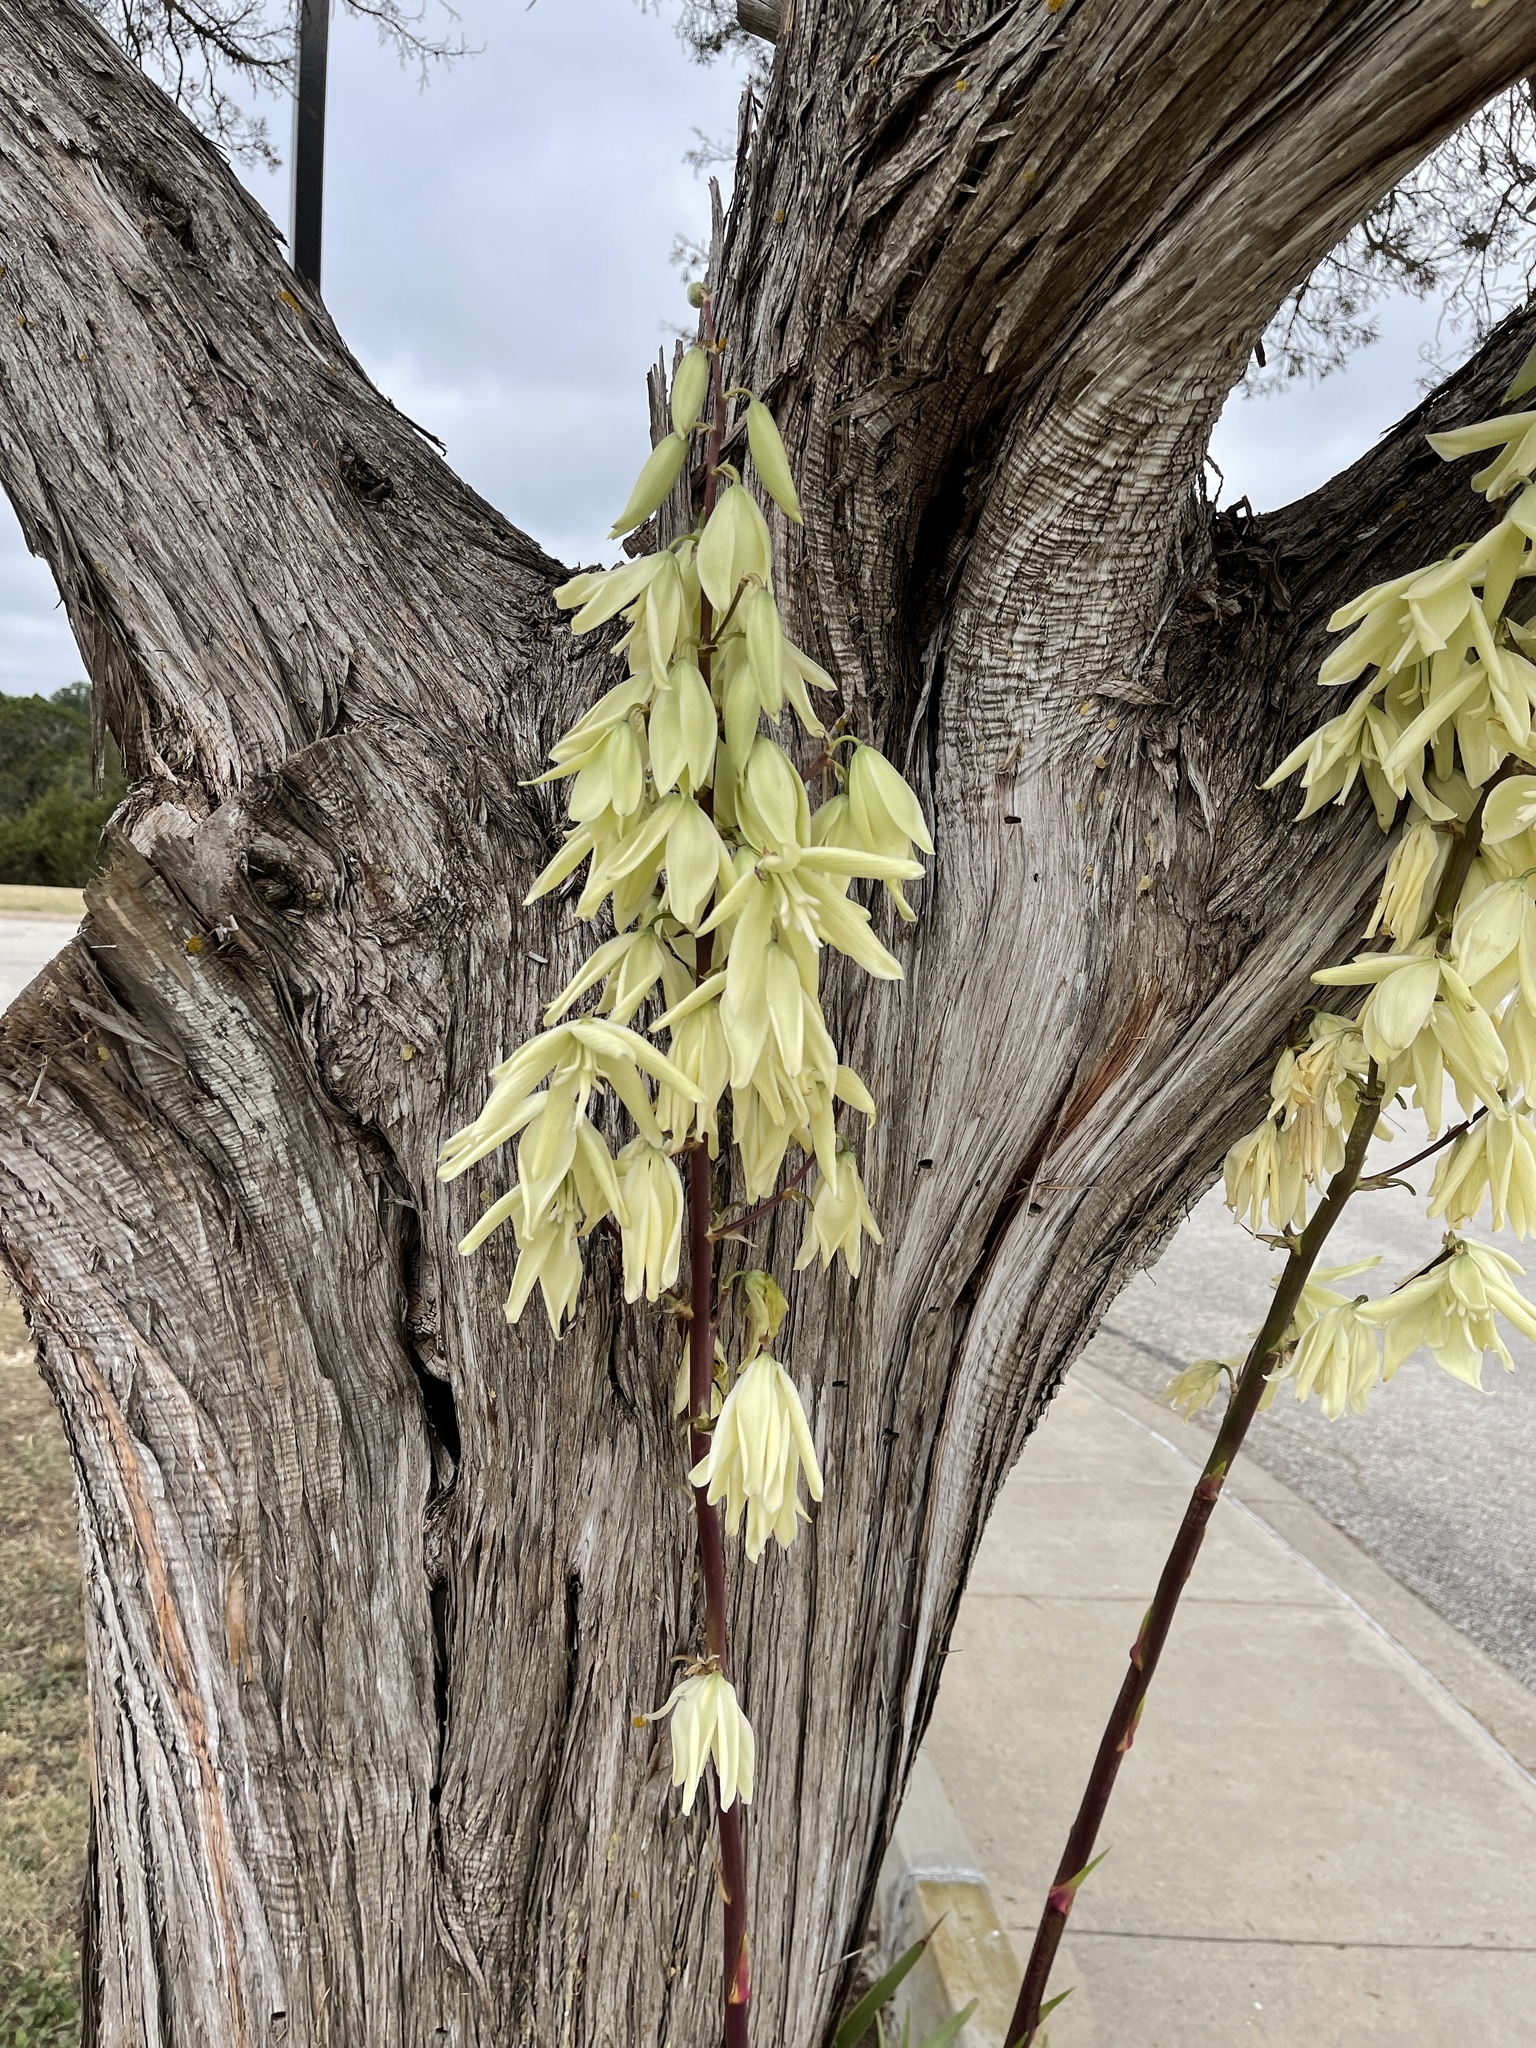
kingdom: Plantae
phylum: Tracheophyta
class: Liliopsida
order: Asparagales
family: Asparagaceae
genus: Yucca
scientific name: Yucca rupicola
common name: Twisted-leaf spanish-dagger
